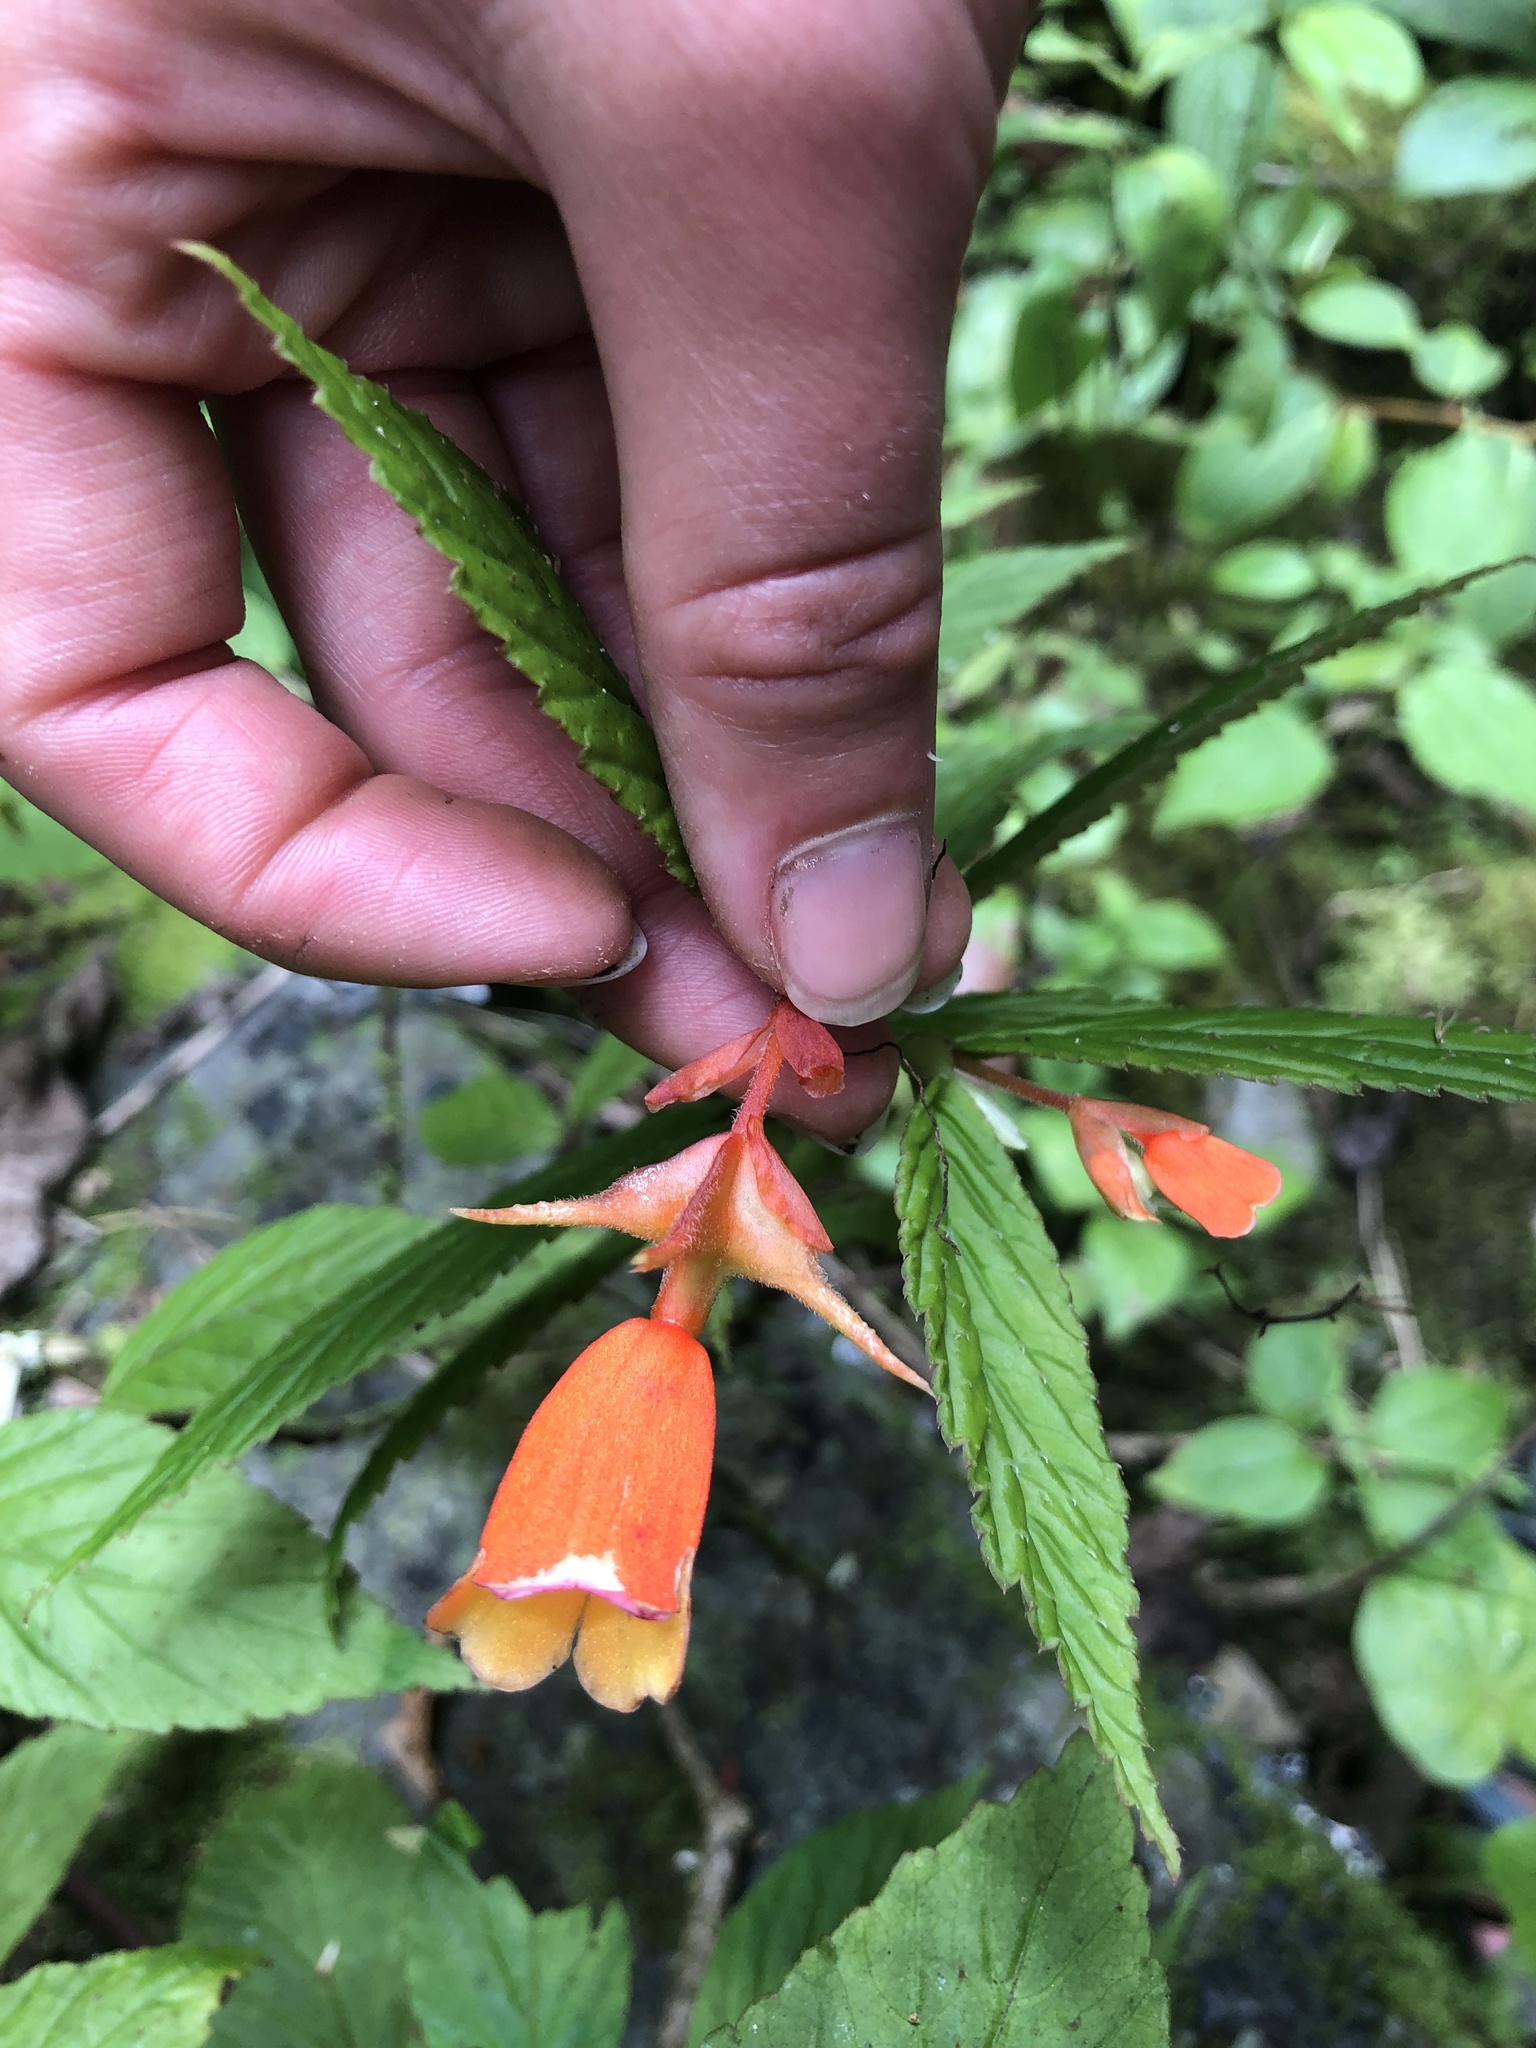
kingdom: Plantae
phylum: Tracheophyta
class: Magnoliopsida
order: Cucurbitales
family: Begoniaceae
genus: Begonia
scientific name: Begonia kalbreyeri
